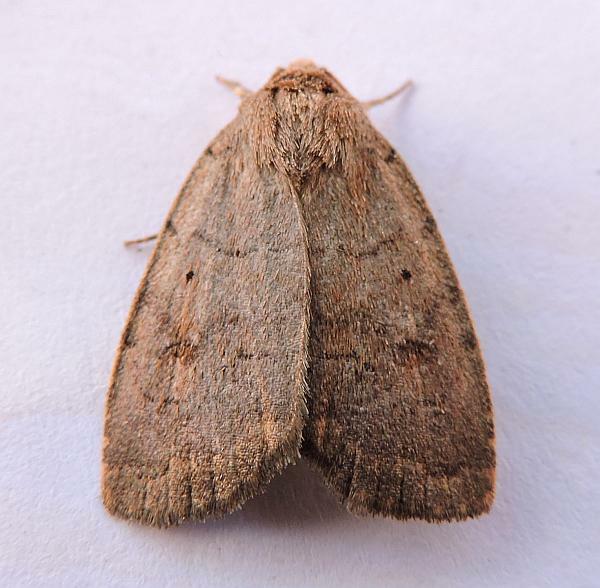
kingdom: Animalia
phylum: Arthropoda
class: Insecta
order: Lepidoptera
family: Noctuidae
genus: Athetis
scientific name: Athetis tarda
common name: Slowpoke moth
